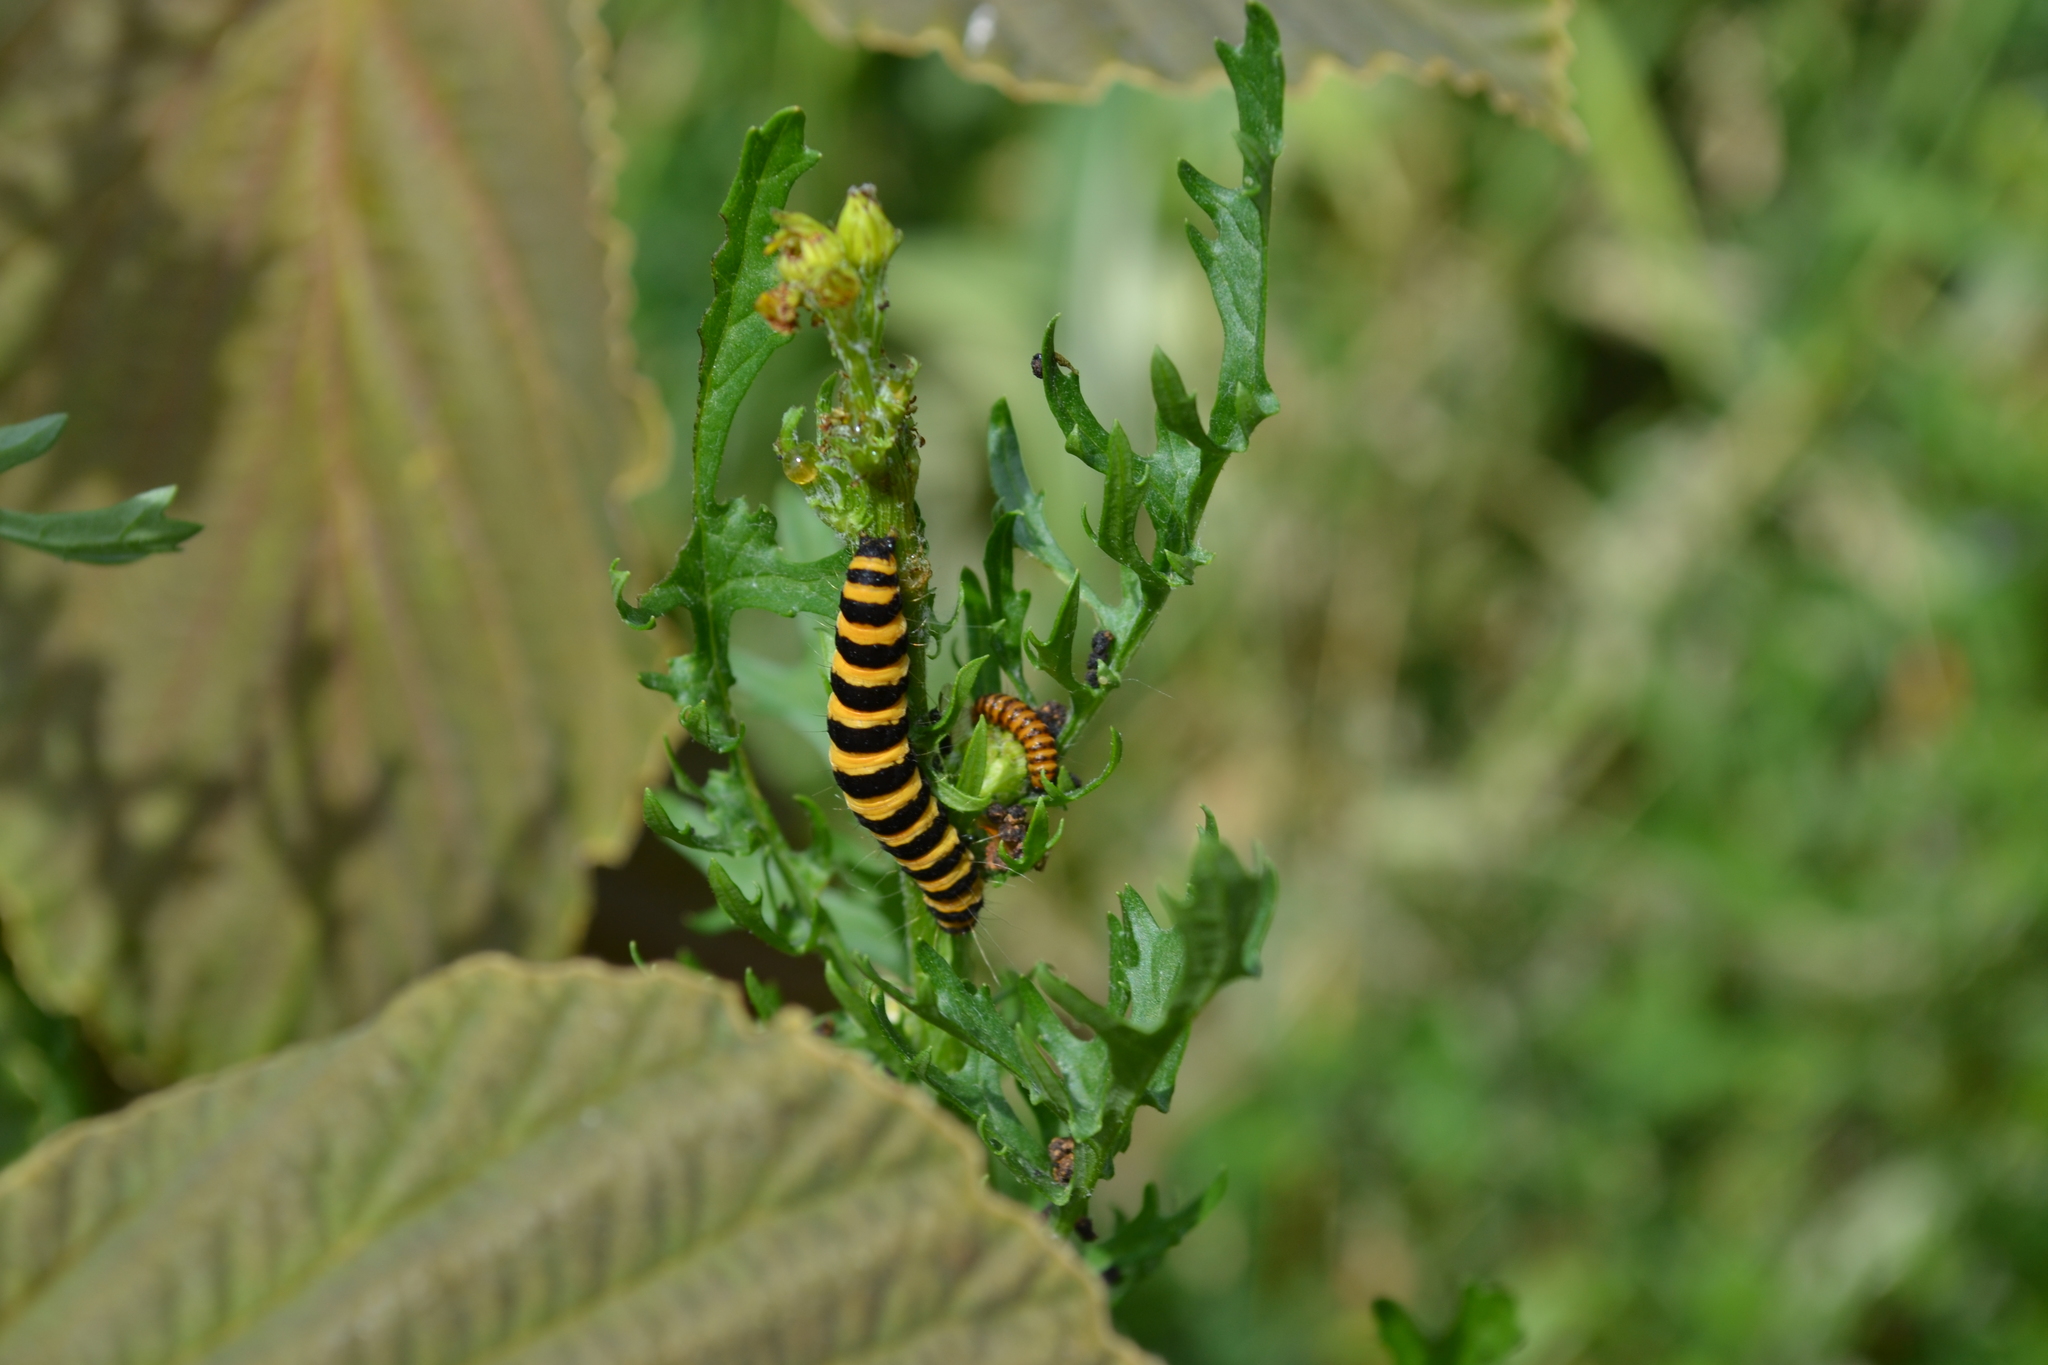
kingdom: Animalia
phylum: Arthropoda
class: Insecta
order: Lepidoptera
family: Erebidae
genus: Tyria
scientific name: Tyria jacobaeae
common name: Cinnabar
